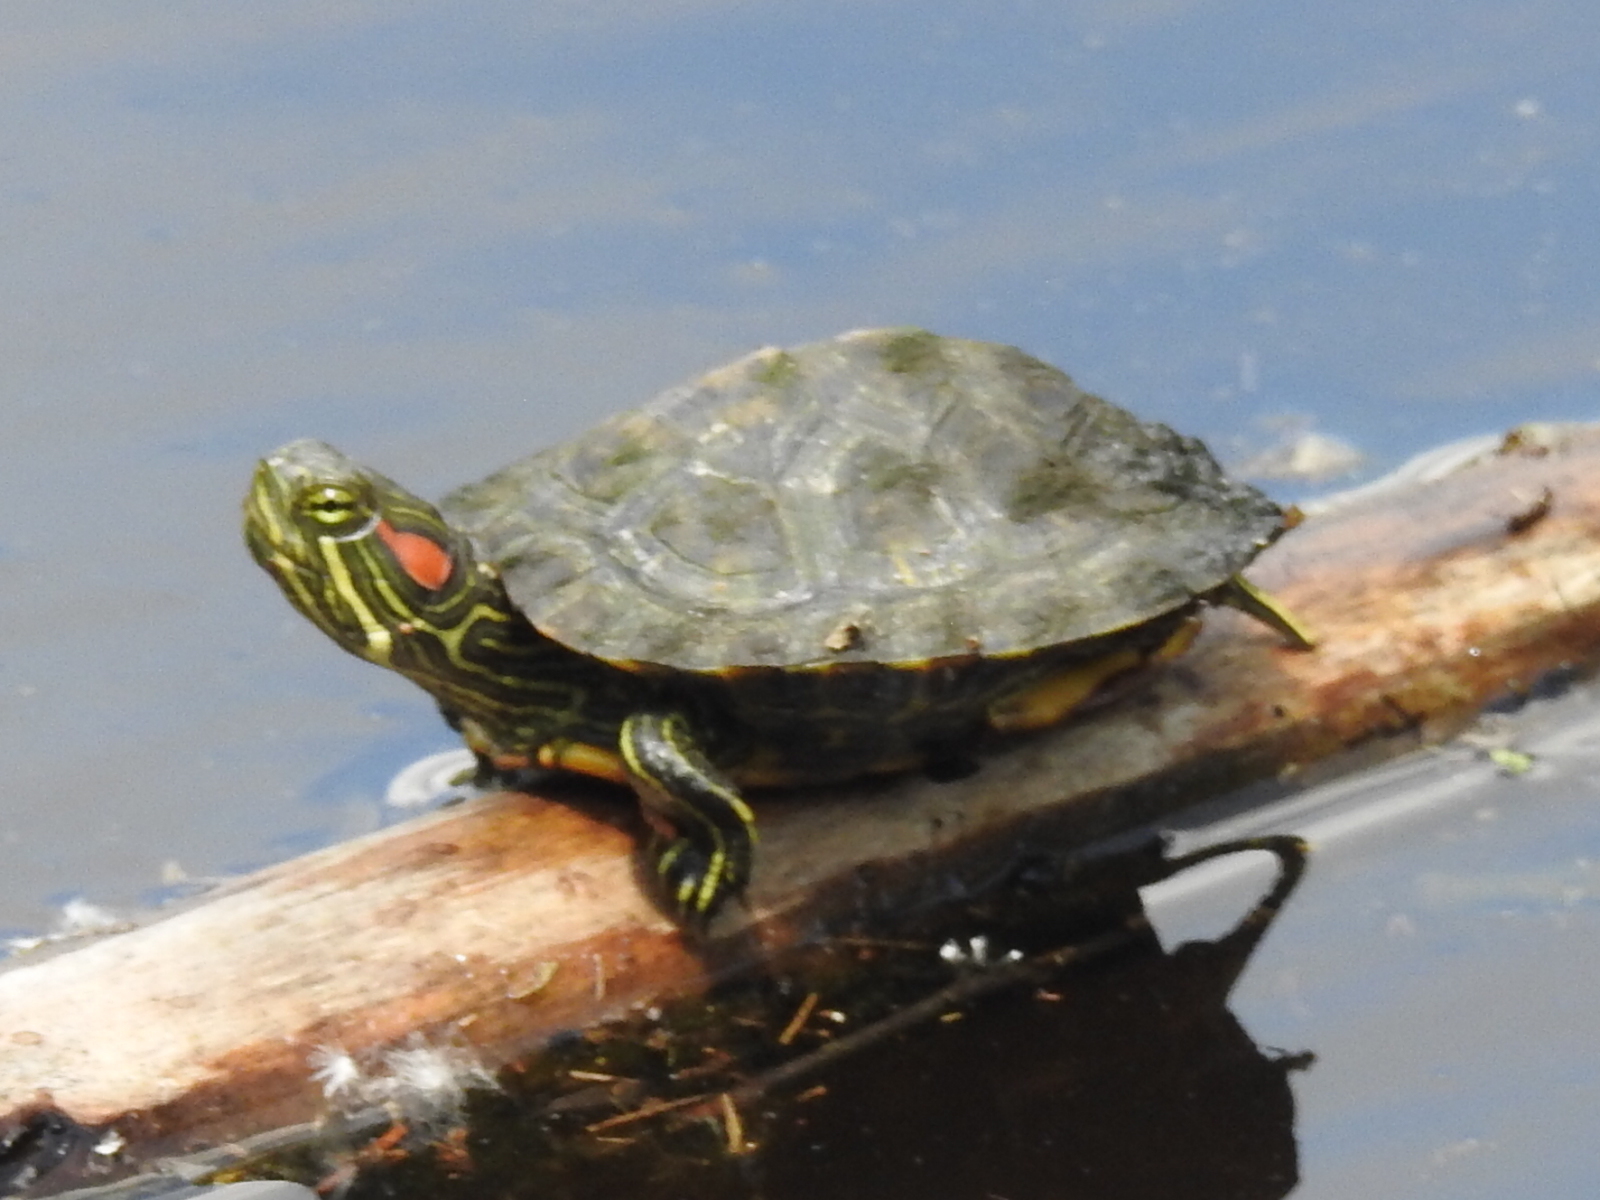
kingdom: Animalia
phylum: Chordata
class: Testudines
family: Emydidae
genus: Trachemys
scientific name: Trachemys scripta
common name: Slider
